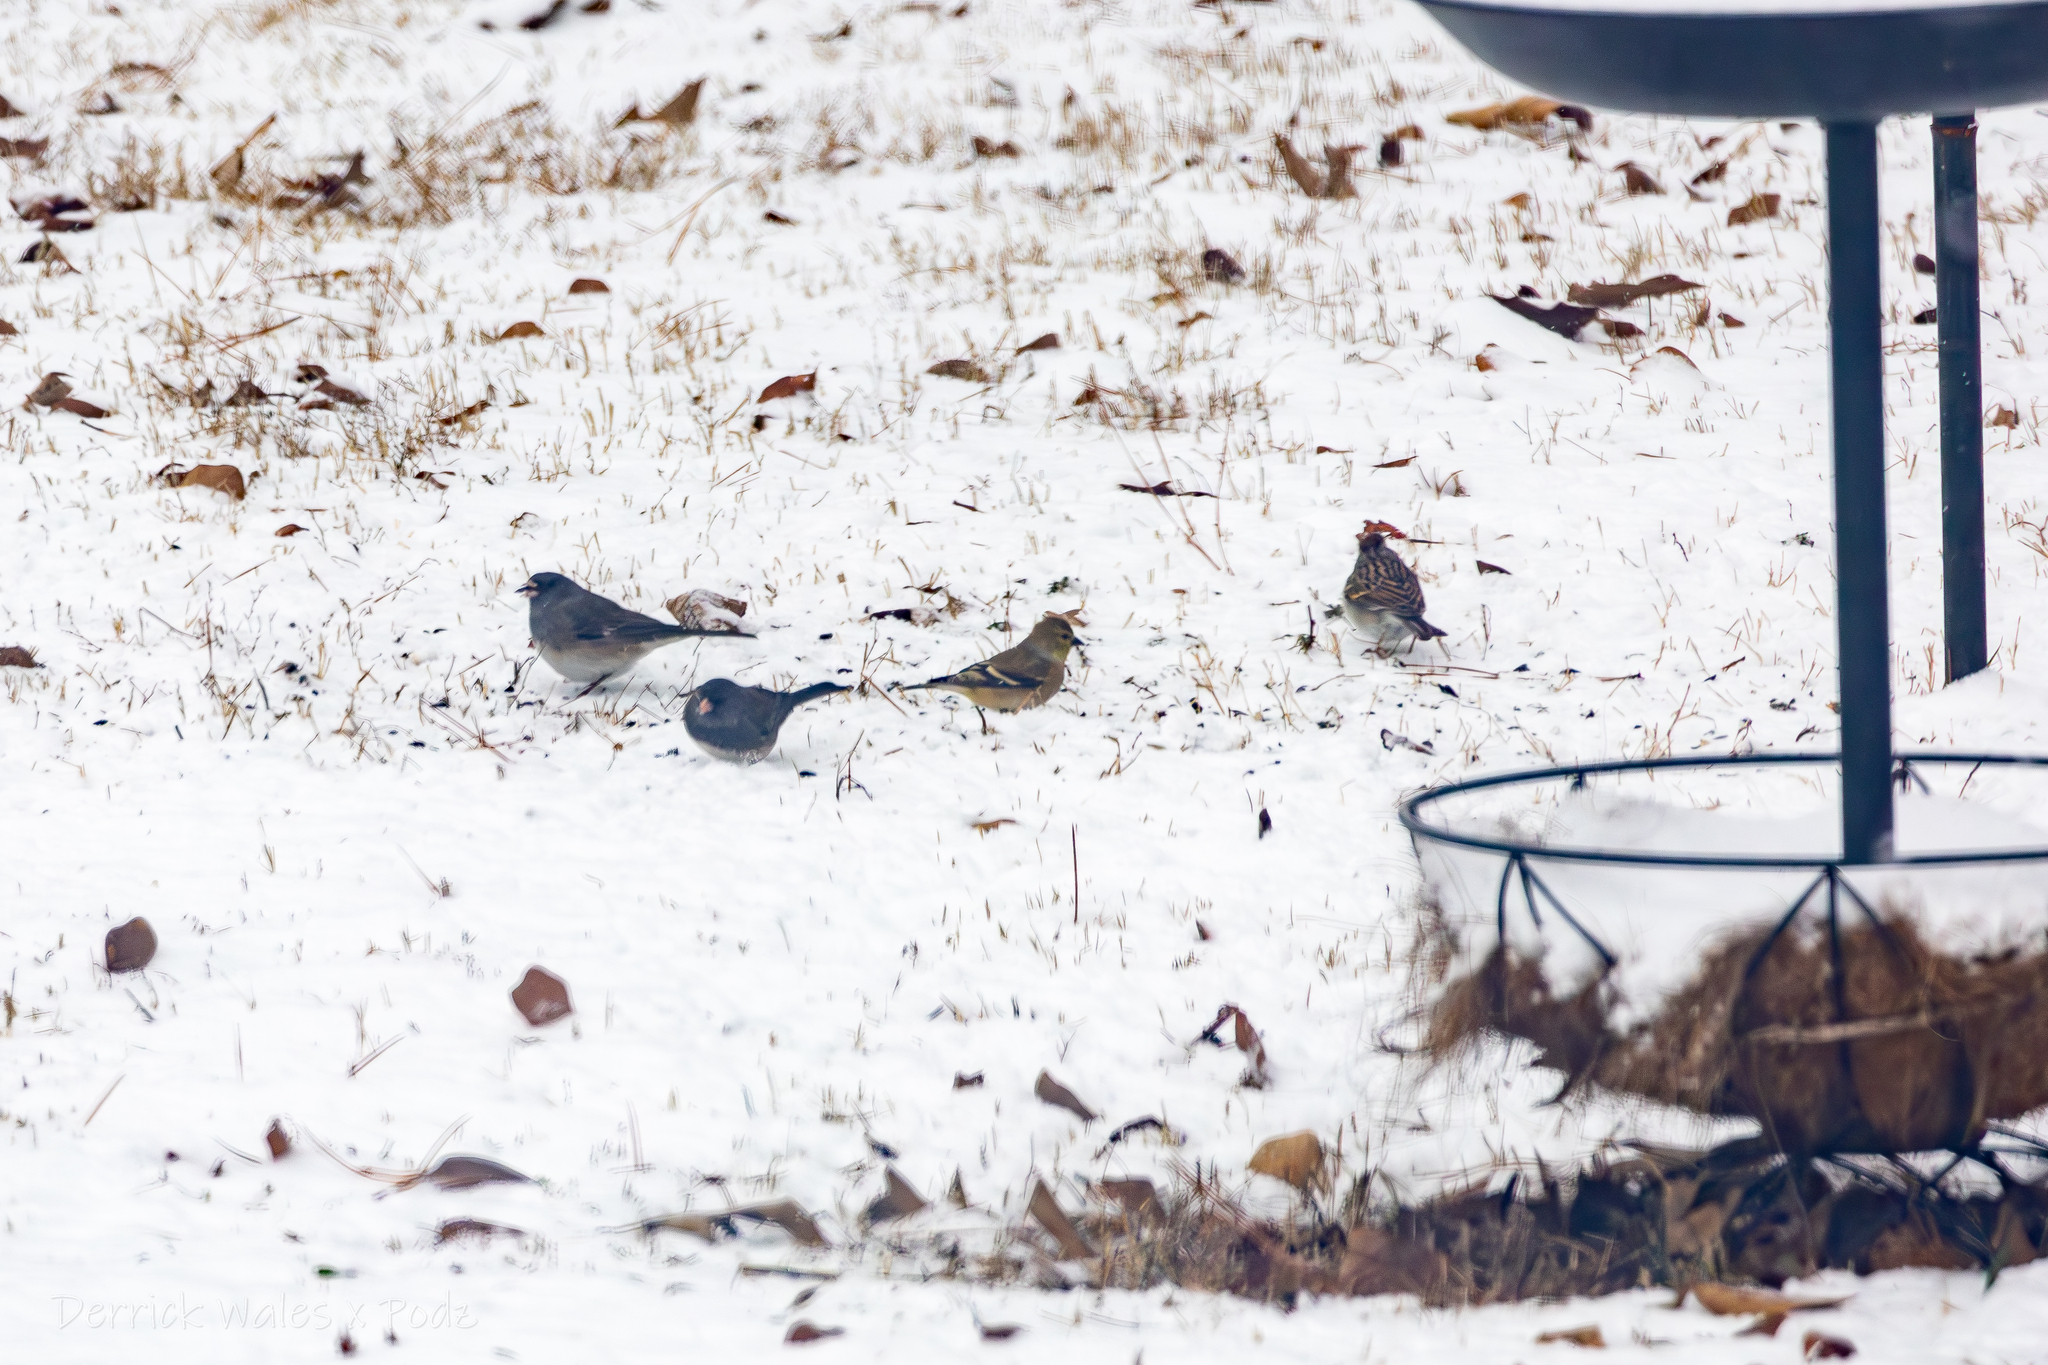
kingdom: Animalia
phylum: Chordata
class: Aves
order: Passeriformes
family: Fringillidae
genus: Spinus
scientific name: Spinus tristis
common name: American goldfinch
